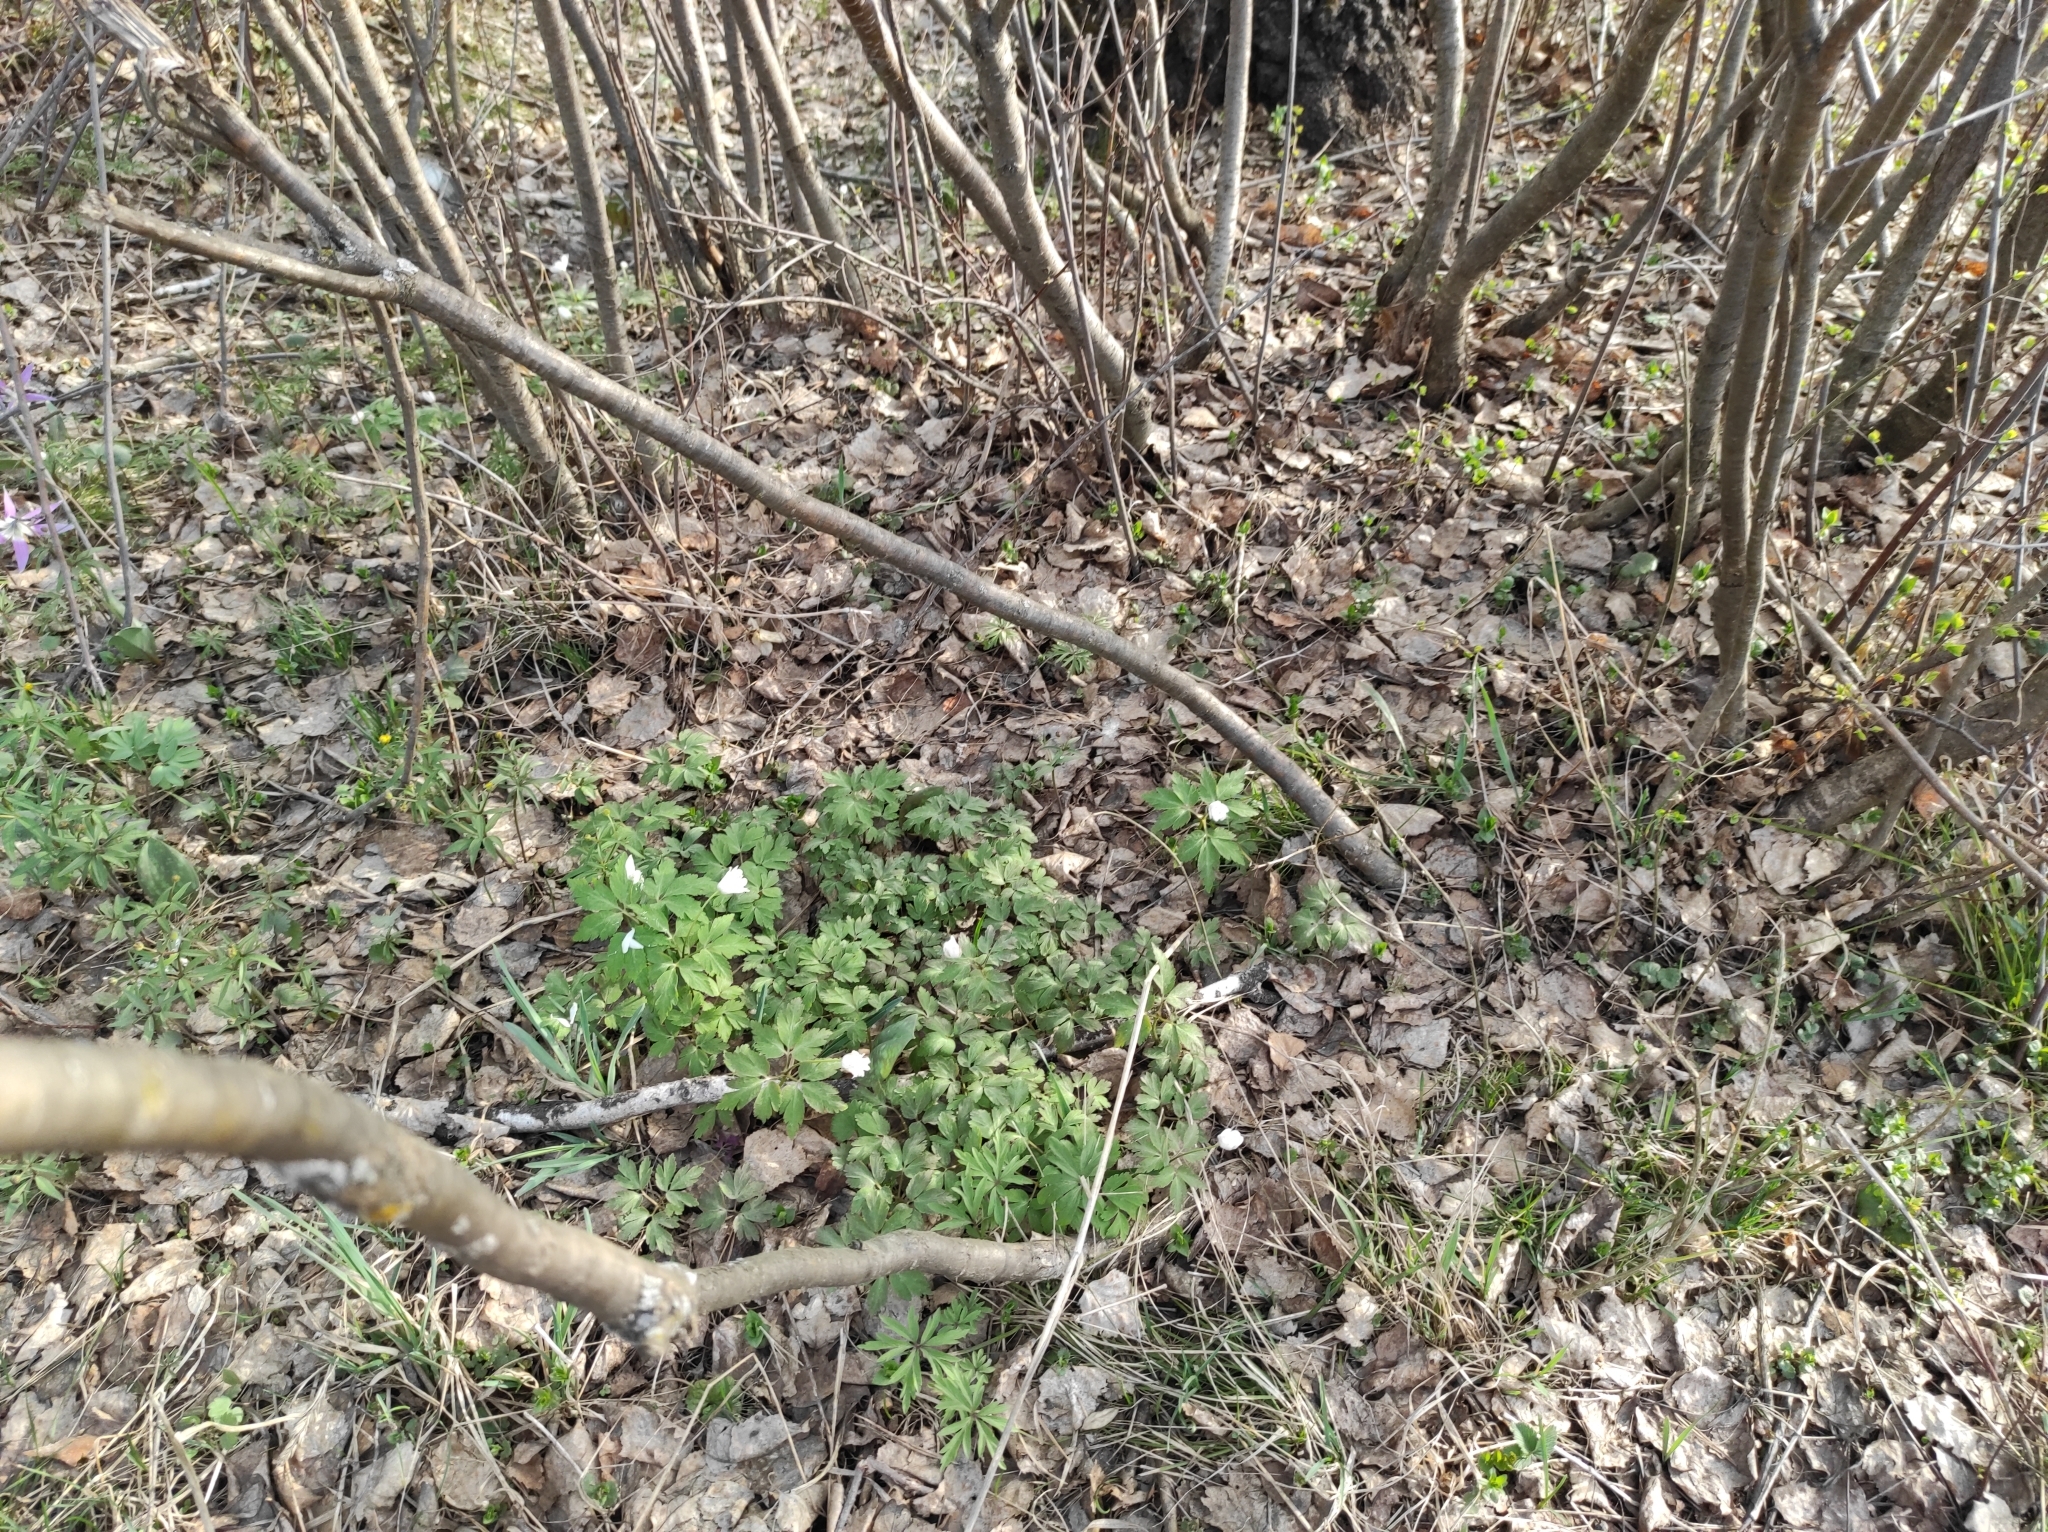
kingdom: Plantae
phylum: Tracheophyta
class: Magnoliopsida
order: Ranunculales
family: Ranunculaceae
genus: Anemone
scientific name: Anemone altaica
